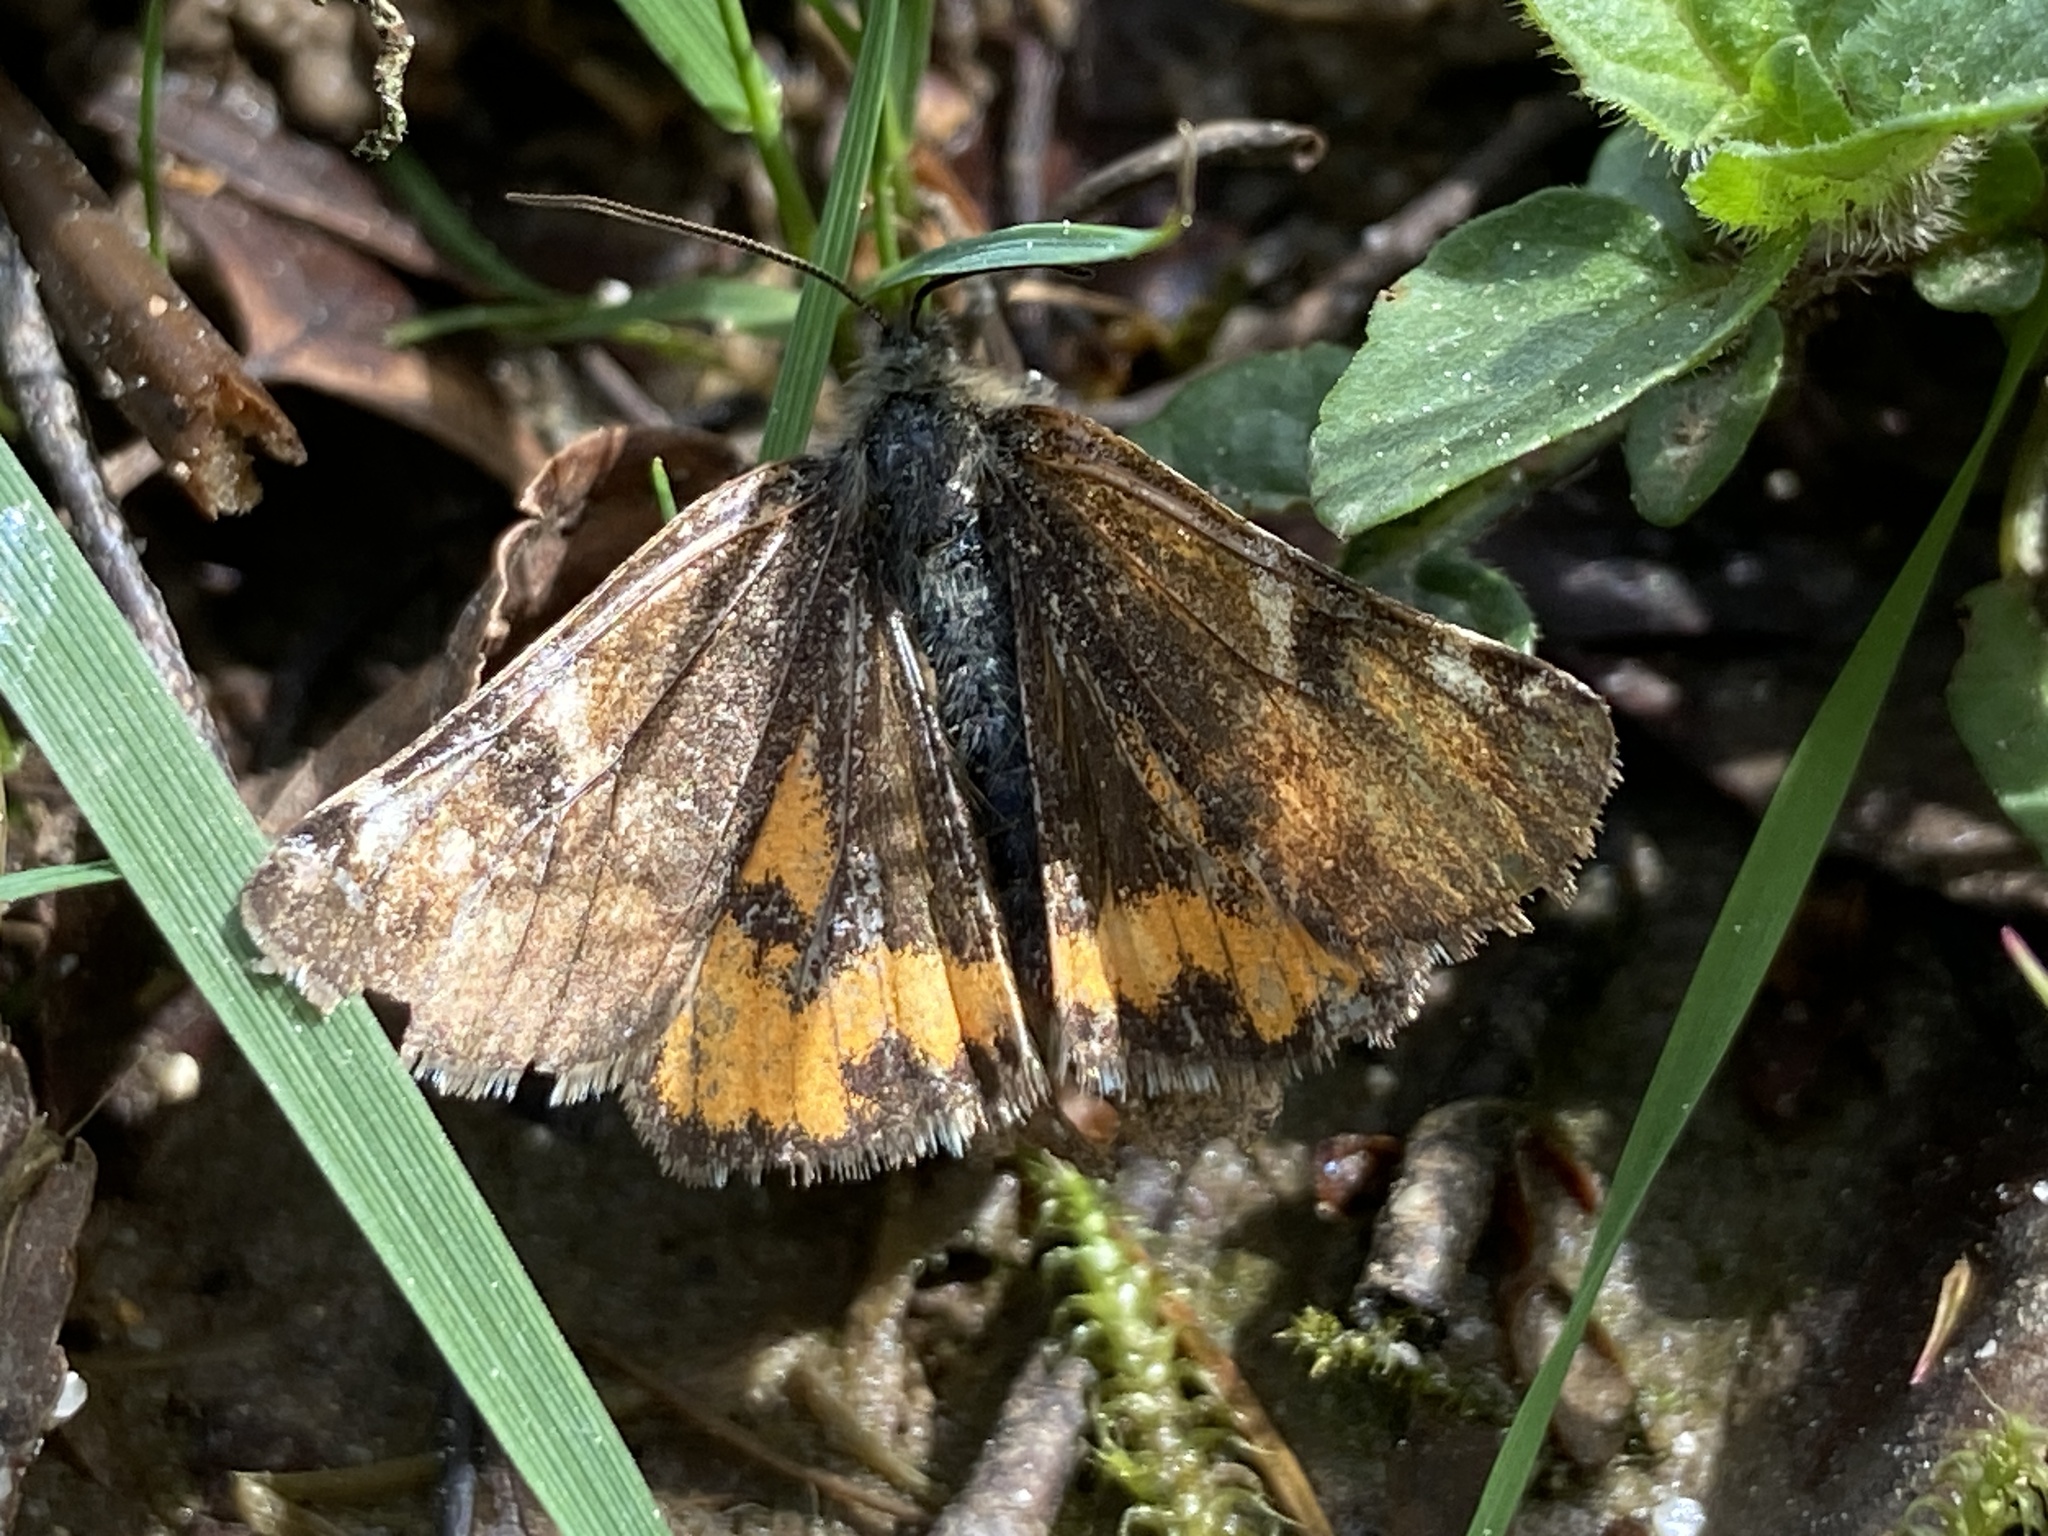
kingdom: Animalia
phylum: Arthropoda
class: Insecta
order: Lepidoptera
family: Geometridae
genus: Archiearis
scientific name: Archiearis parthenias
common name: Orange underwing
